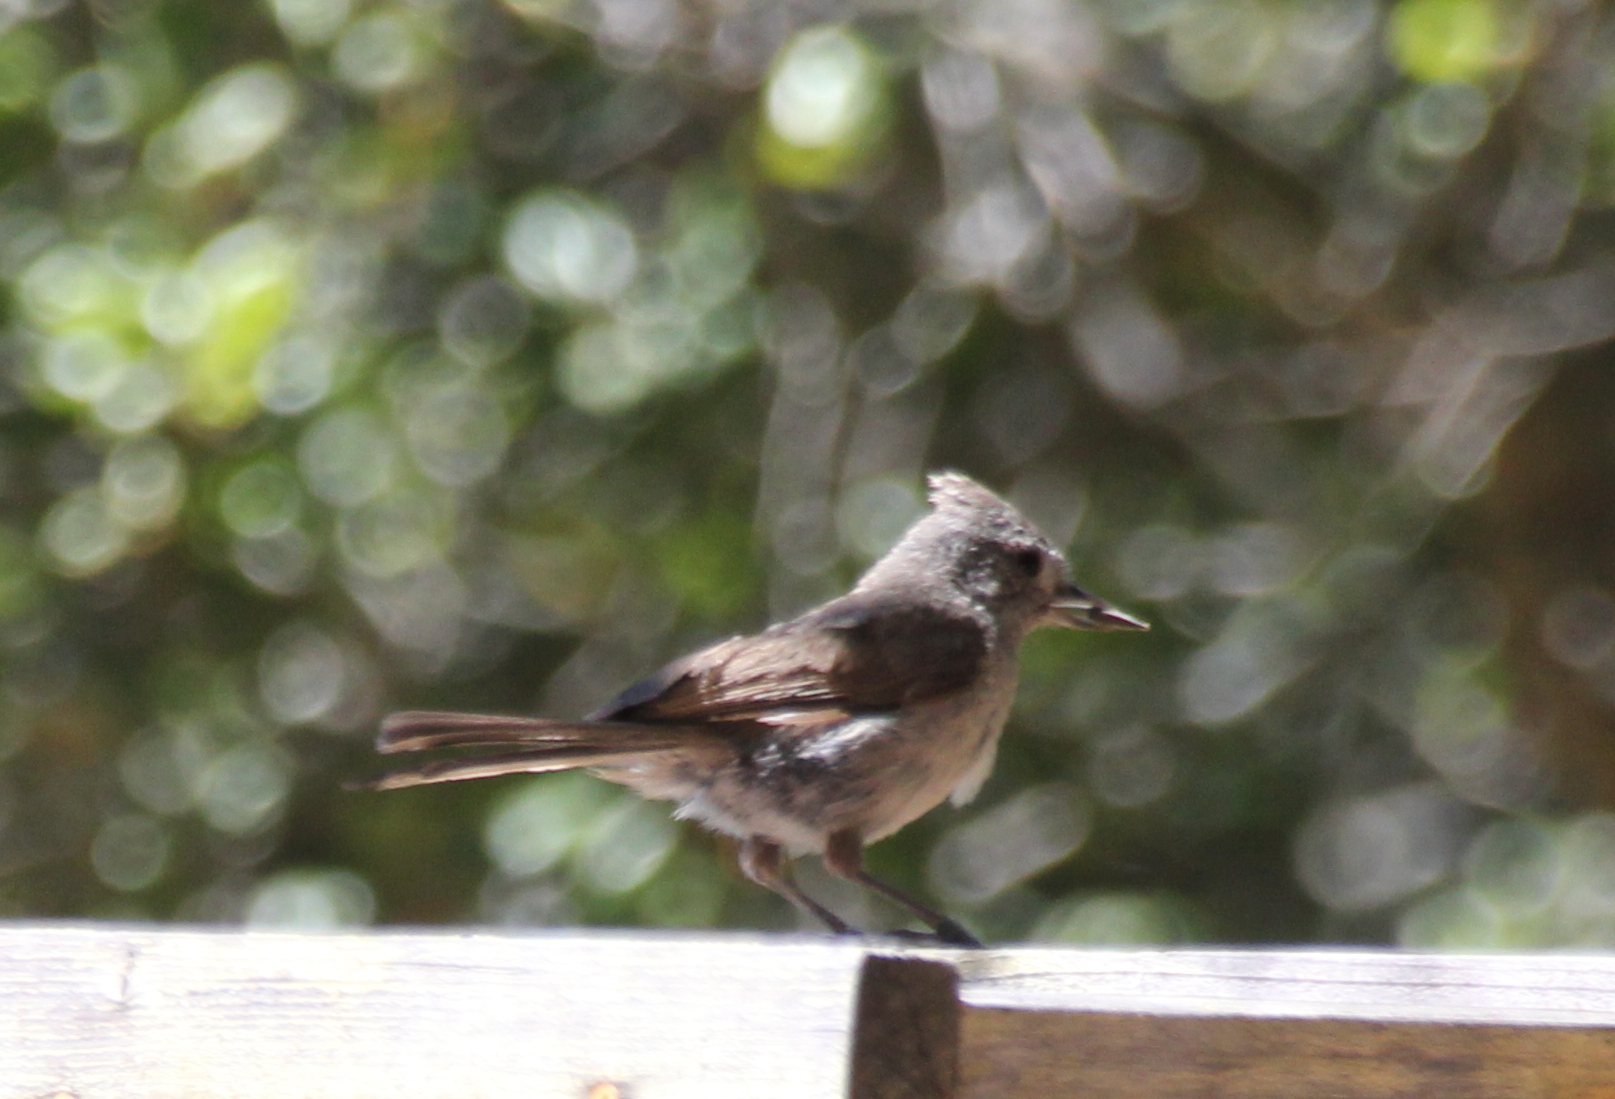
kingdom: Animalia
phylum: Chordata
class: Aves
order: Passeriformes
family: Paridae
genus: Baeolophus
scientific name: Baeolophus inornatus
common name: Oak titmouse
